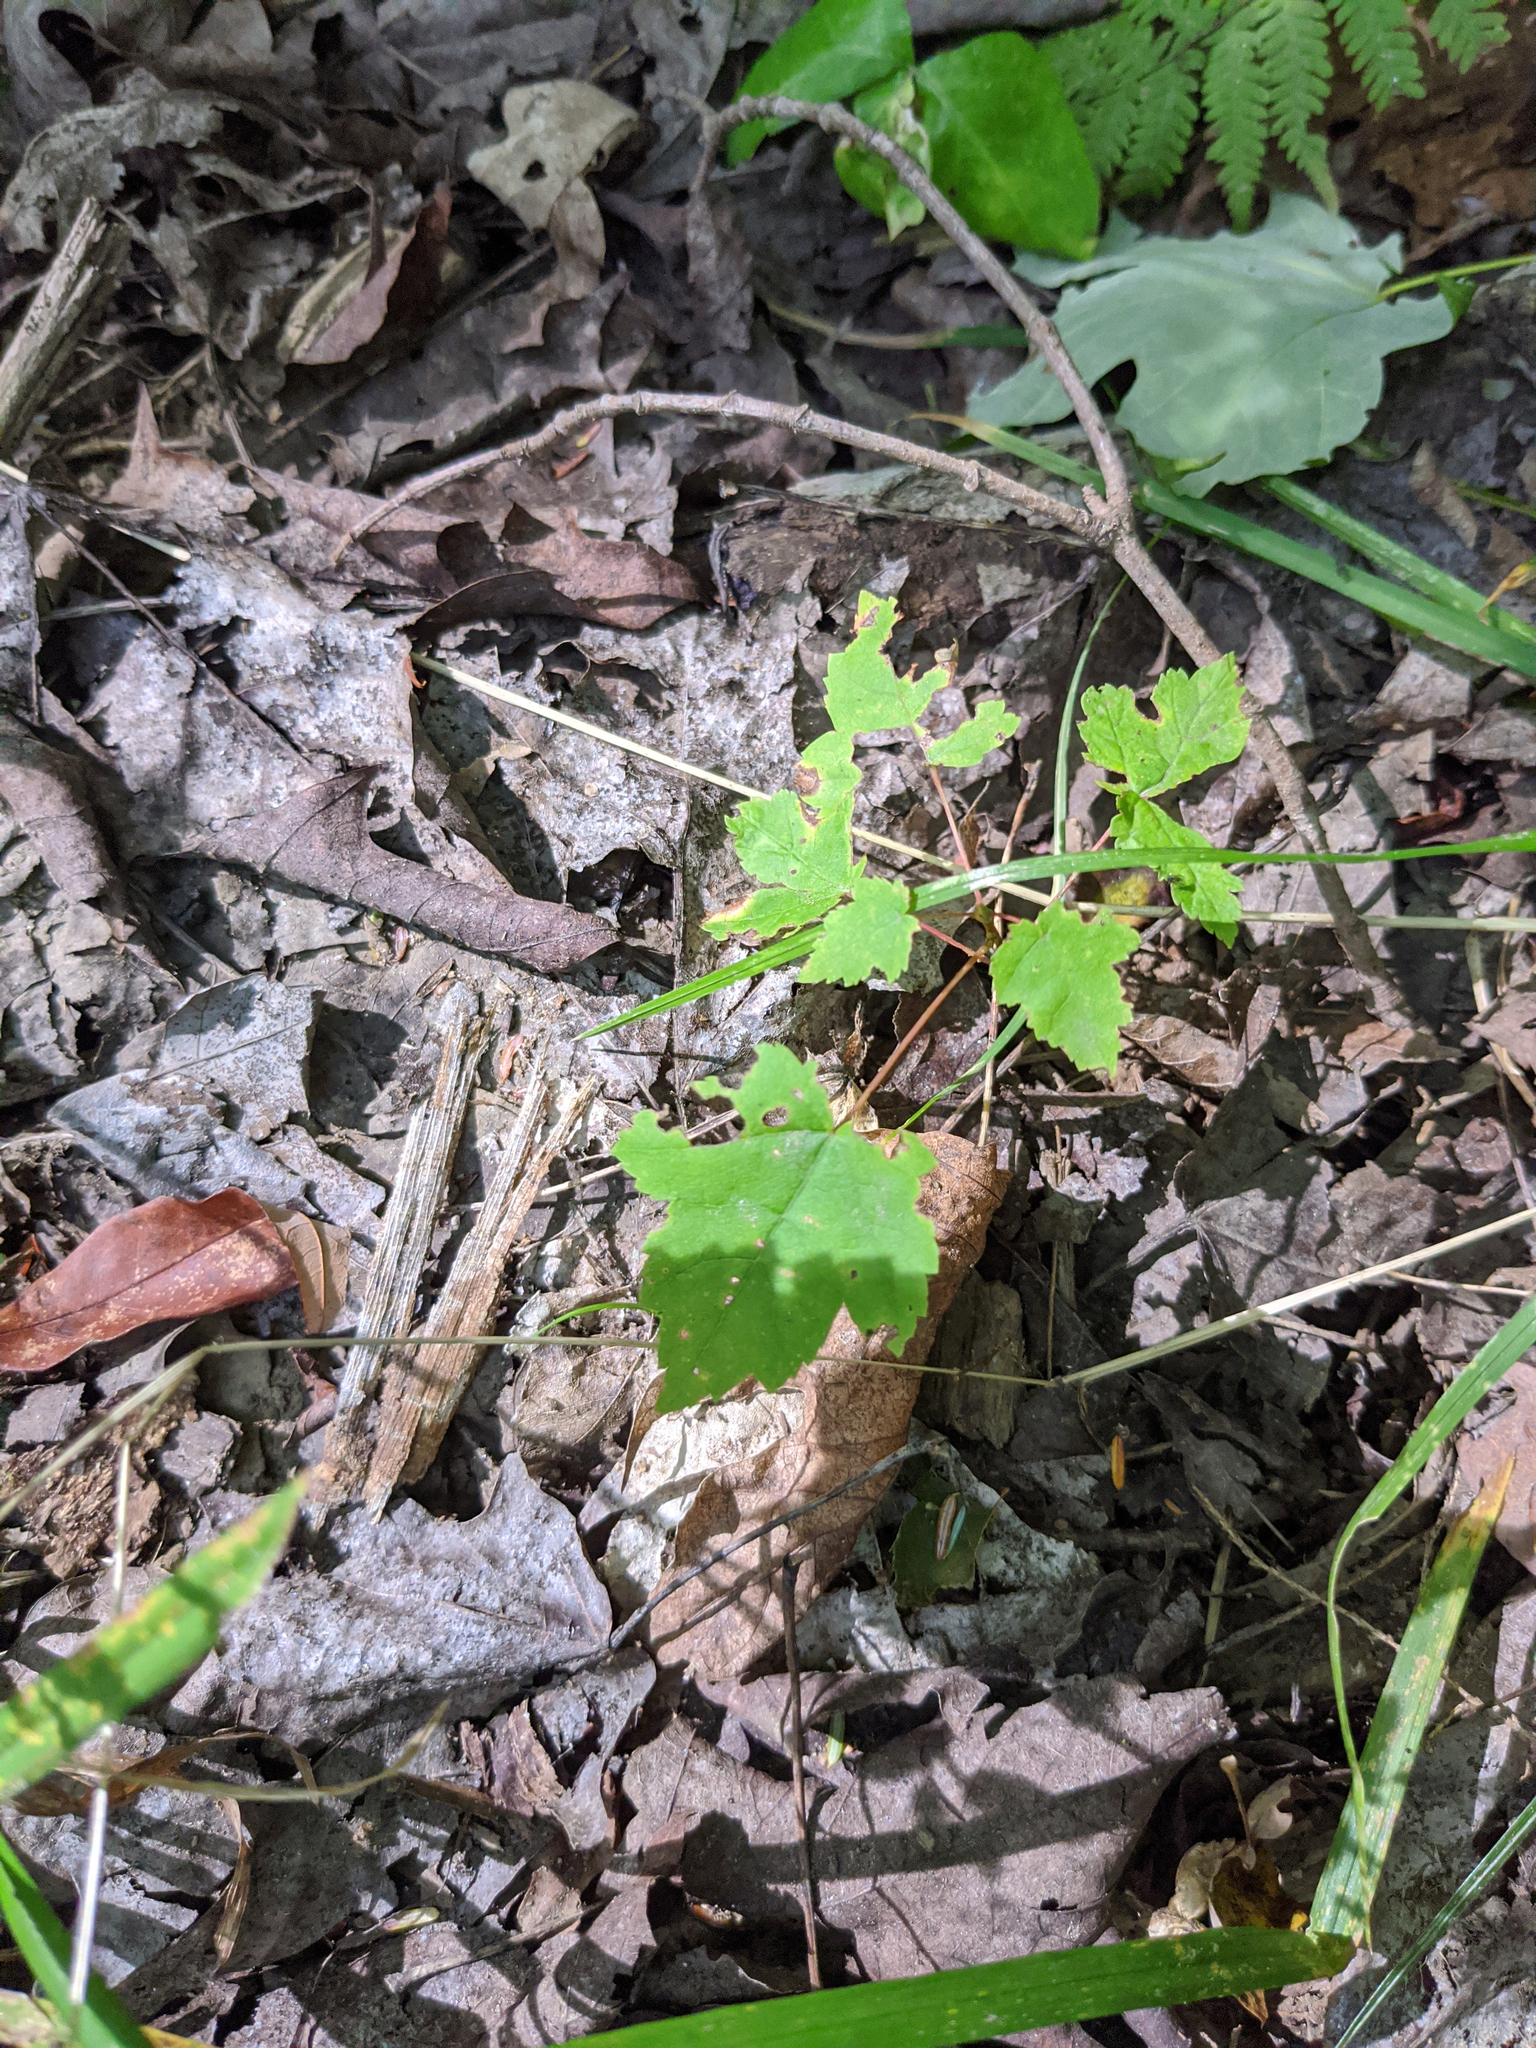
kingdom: Plantae
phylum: Tracheophyta
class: Magnoliopsida
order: Sapindales
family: Sapindaceae
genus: Acer
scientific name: Acer rubrum
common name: Red maple
